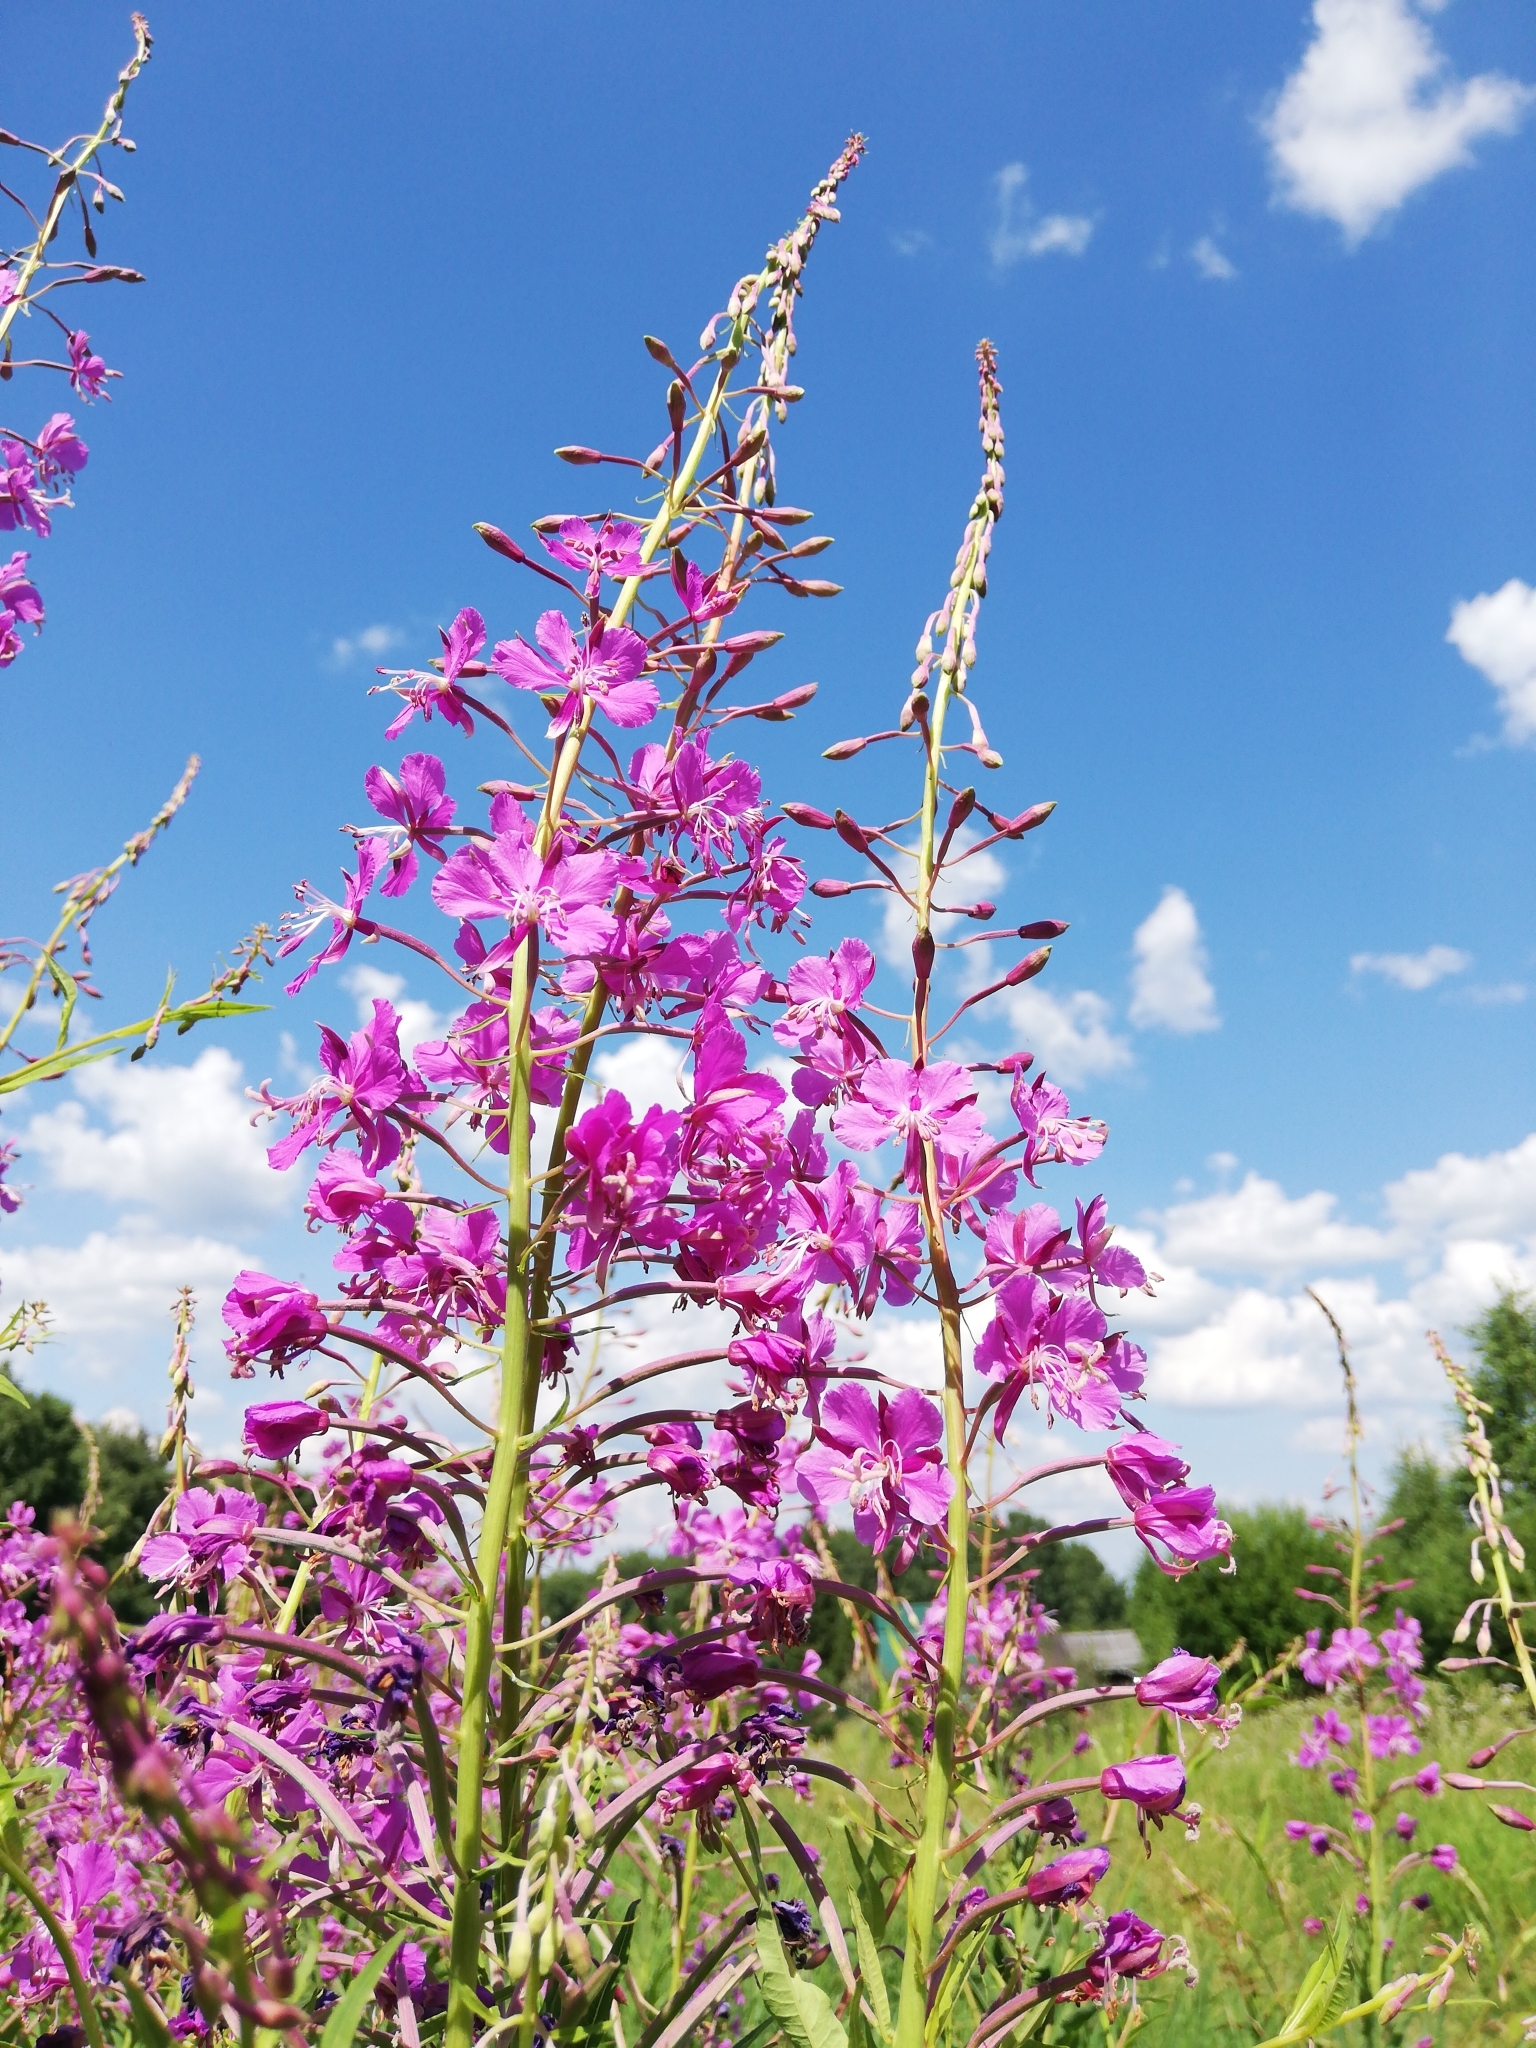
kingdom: Plantae
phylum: Tracheophyta
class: Magnoliopsida
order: Myrtales
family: Onagraceae
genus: Chamaenerion
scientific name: Chamaenerion angustifolium
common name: Fireweed
